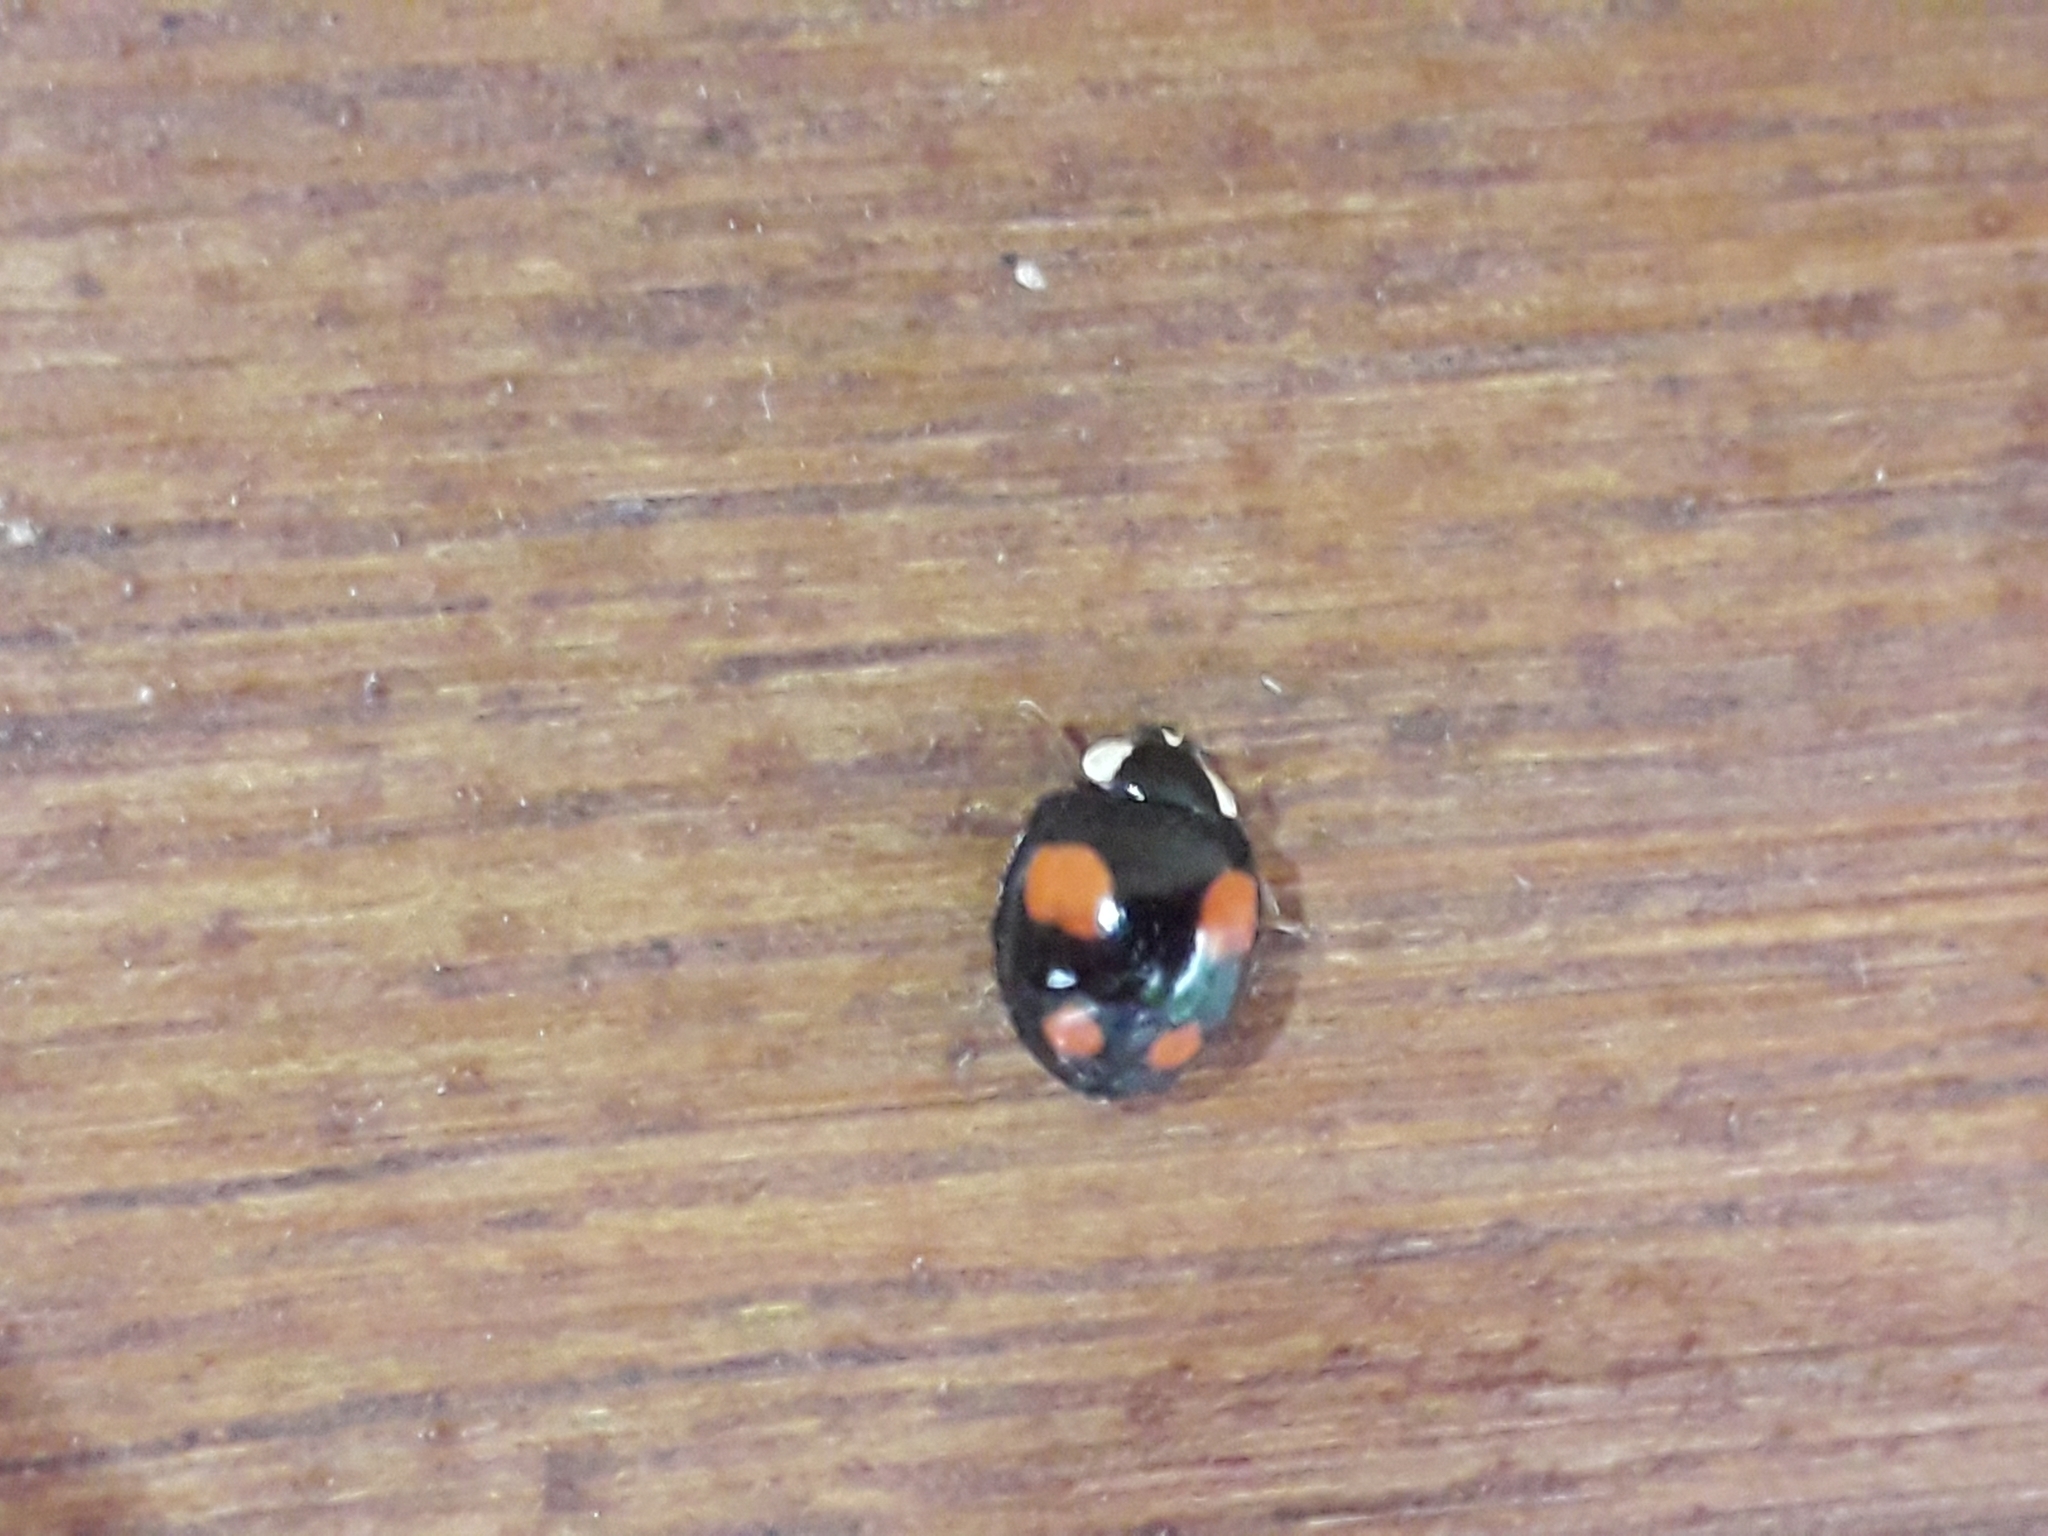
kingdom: Animalia
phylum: Arthropoda
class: Insecta
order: Coleoptera
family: Coccinellidae
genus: Harmonia
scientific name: Harmonia axyridis
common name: Harlequin ladybird
